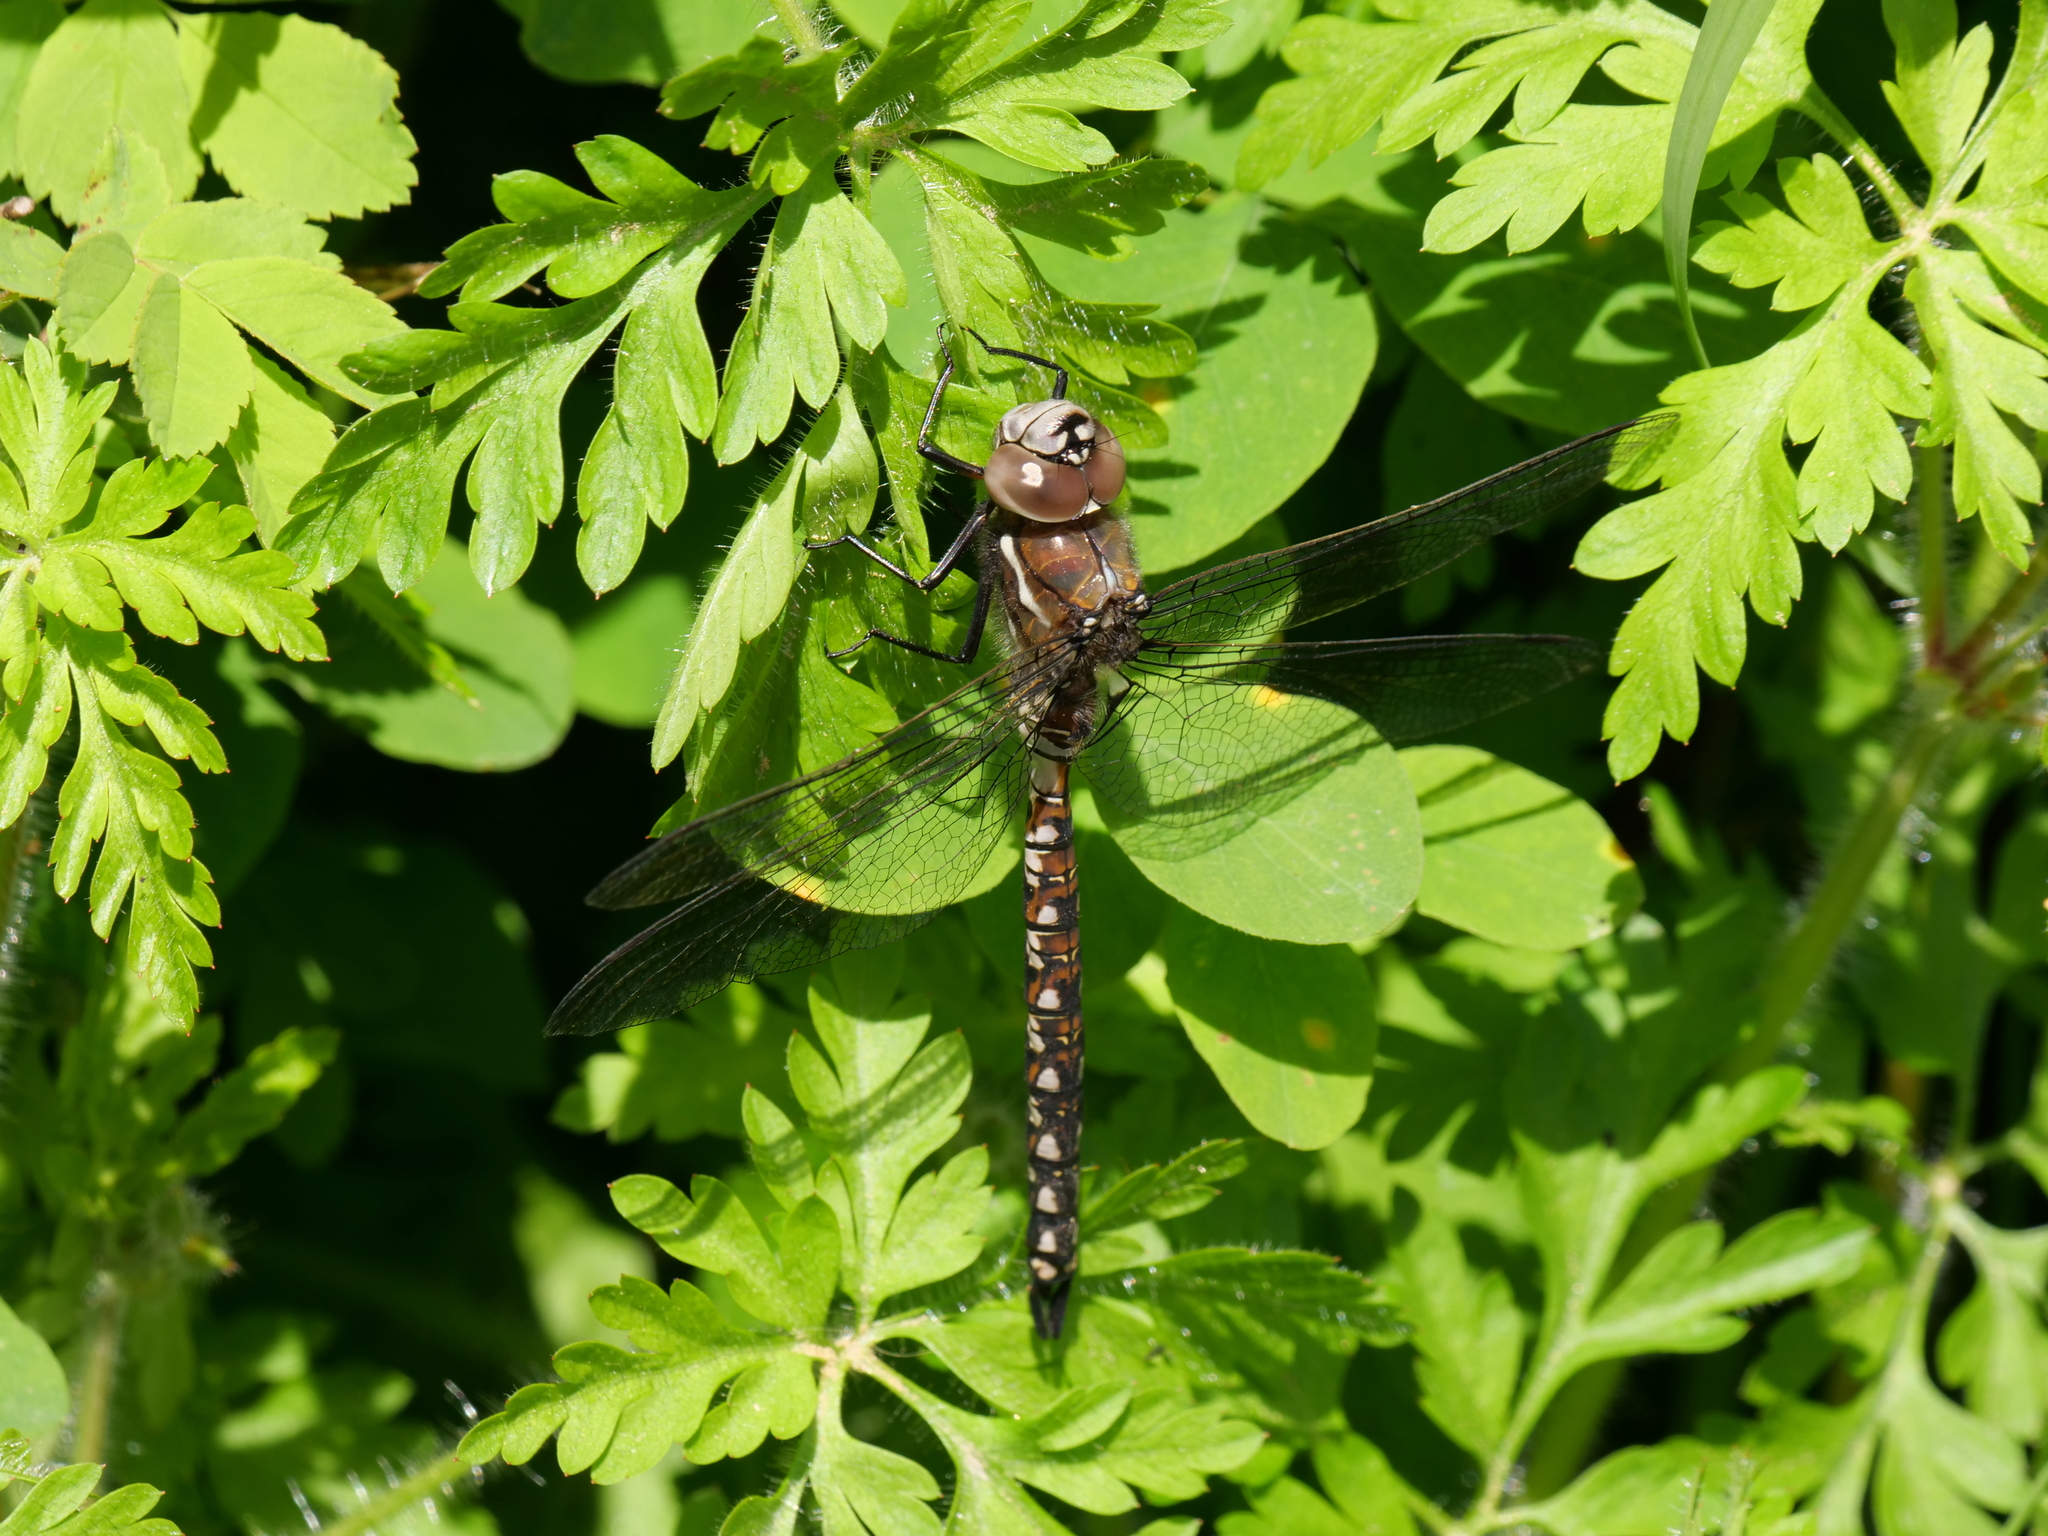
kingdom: Animalia
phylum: Arthropoda
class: Insecta
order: Odonata
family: Aeshnidae
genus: Rhionaeschna
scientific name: Rhionaeschna californica
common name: California darner
